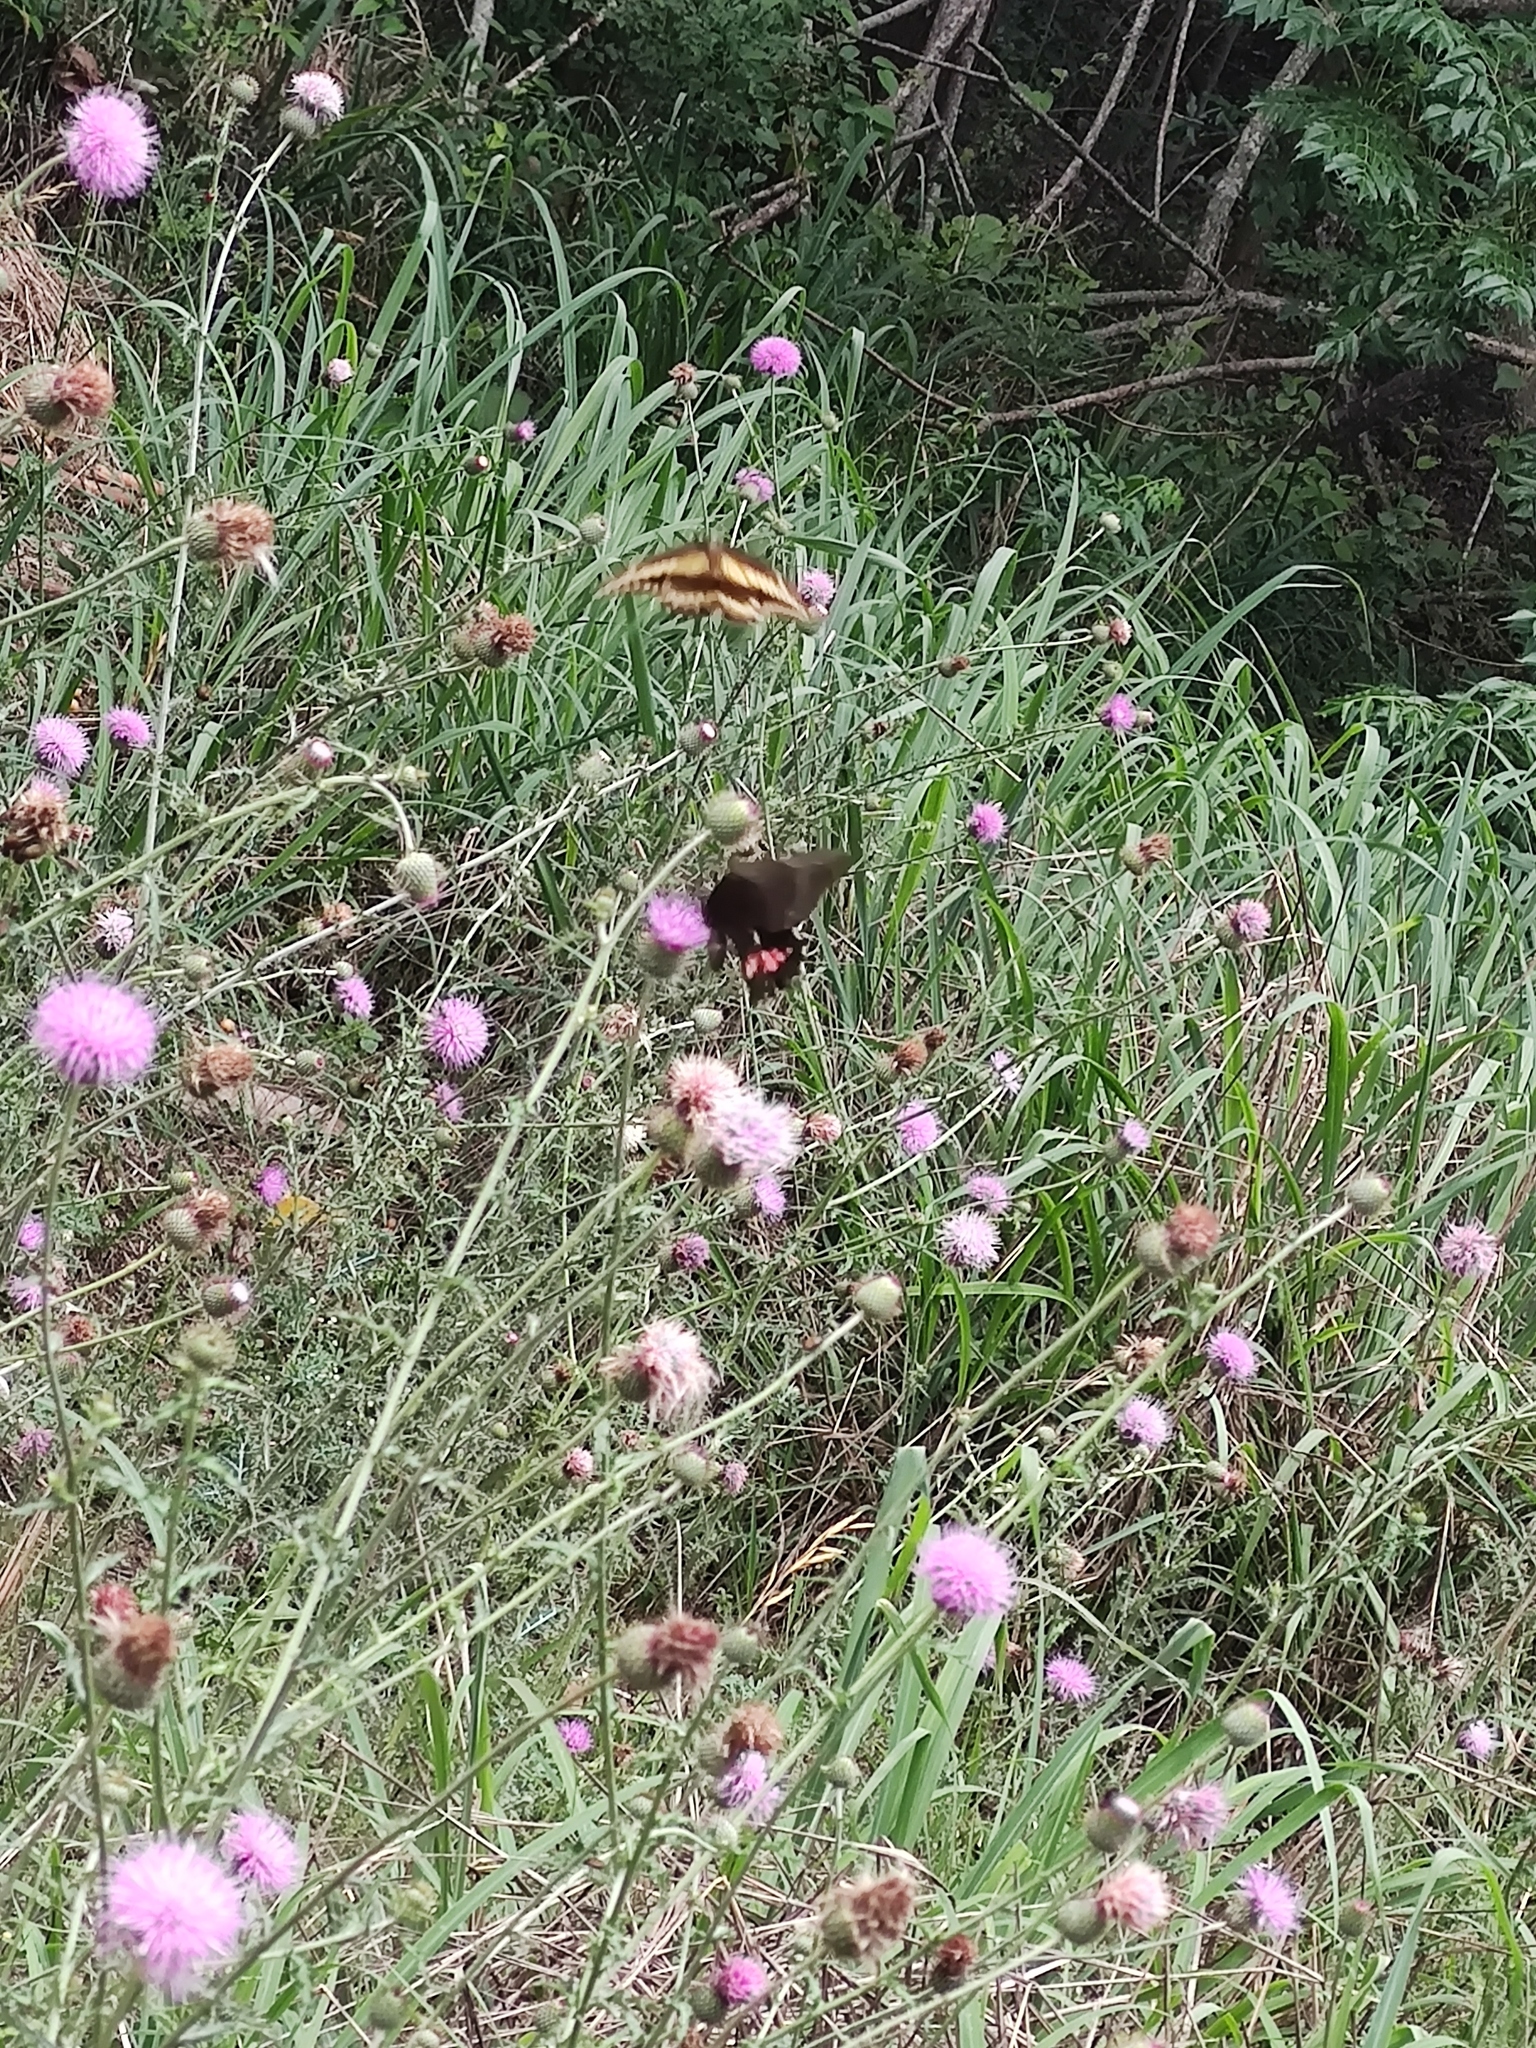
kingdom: Animalia
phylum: Arthropoda
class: Insecta
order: Lepidoptera
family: Papilionidae
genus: Papilio
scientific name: Papilio anchisiades
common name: Idaes swallowtail
